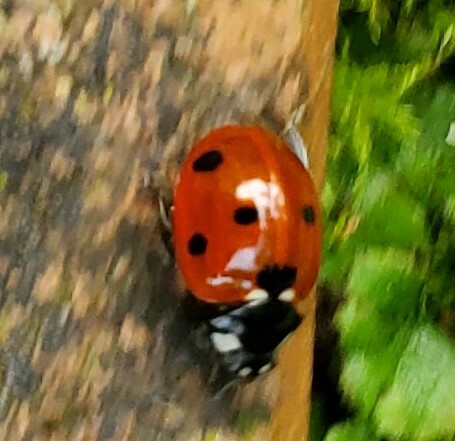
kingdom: Animalia
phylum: Arthropoda
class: Insecta
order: Coleoptera
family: Coccinellidae
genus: Coccinella
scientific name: Coccinella septempunctata
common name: Sevenspotted lady beetle
